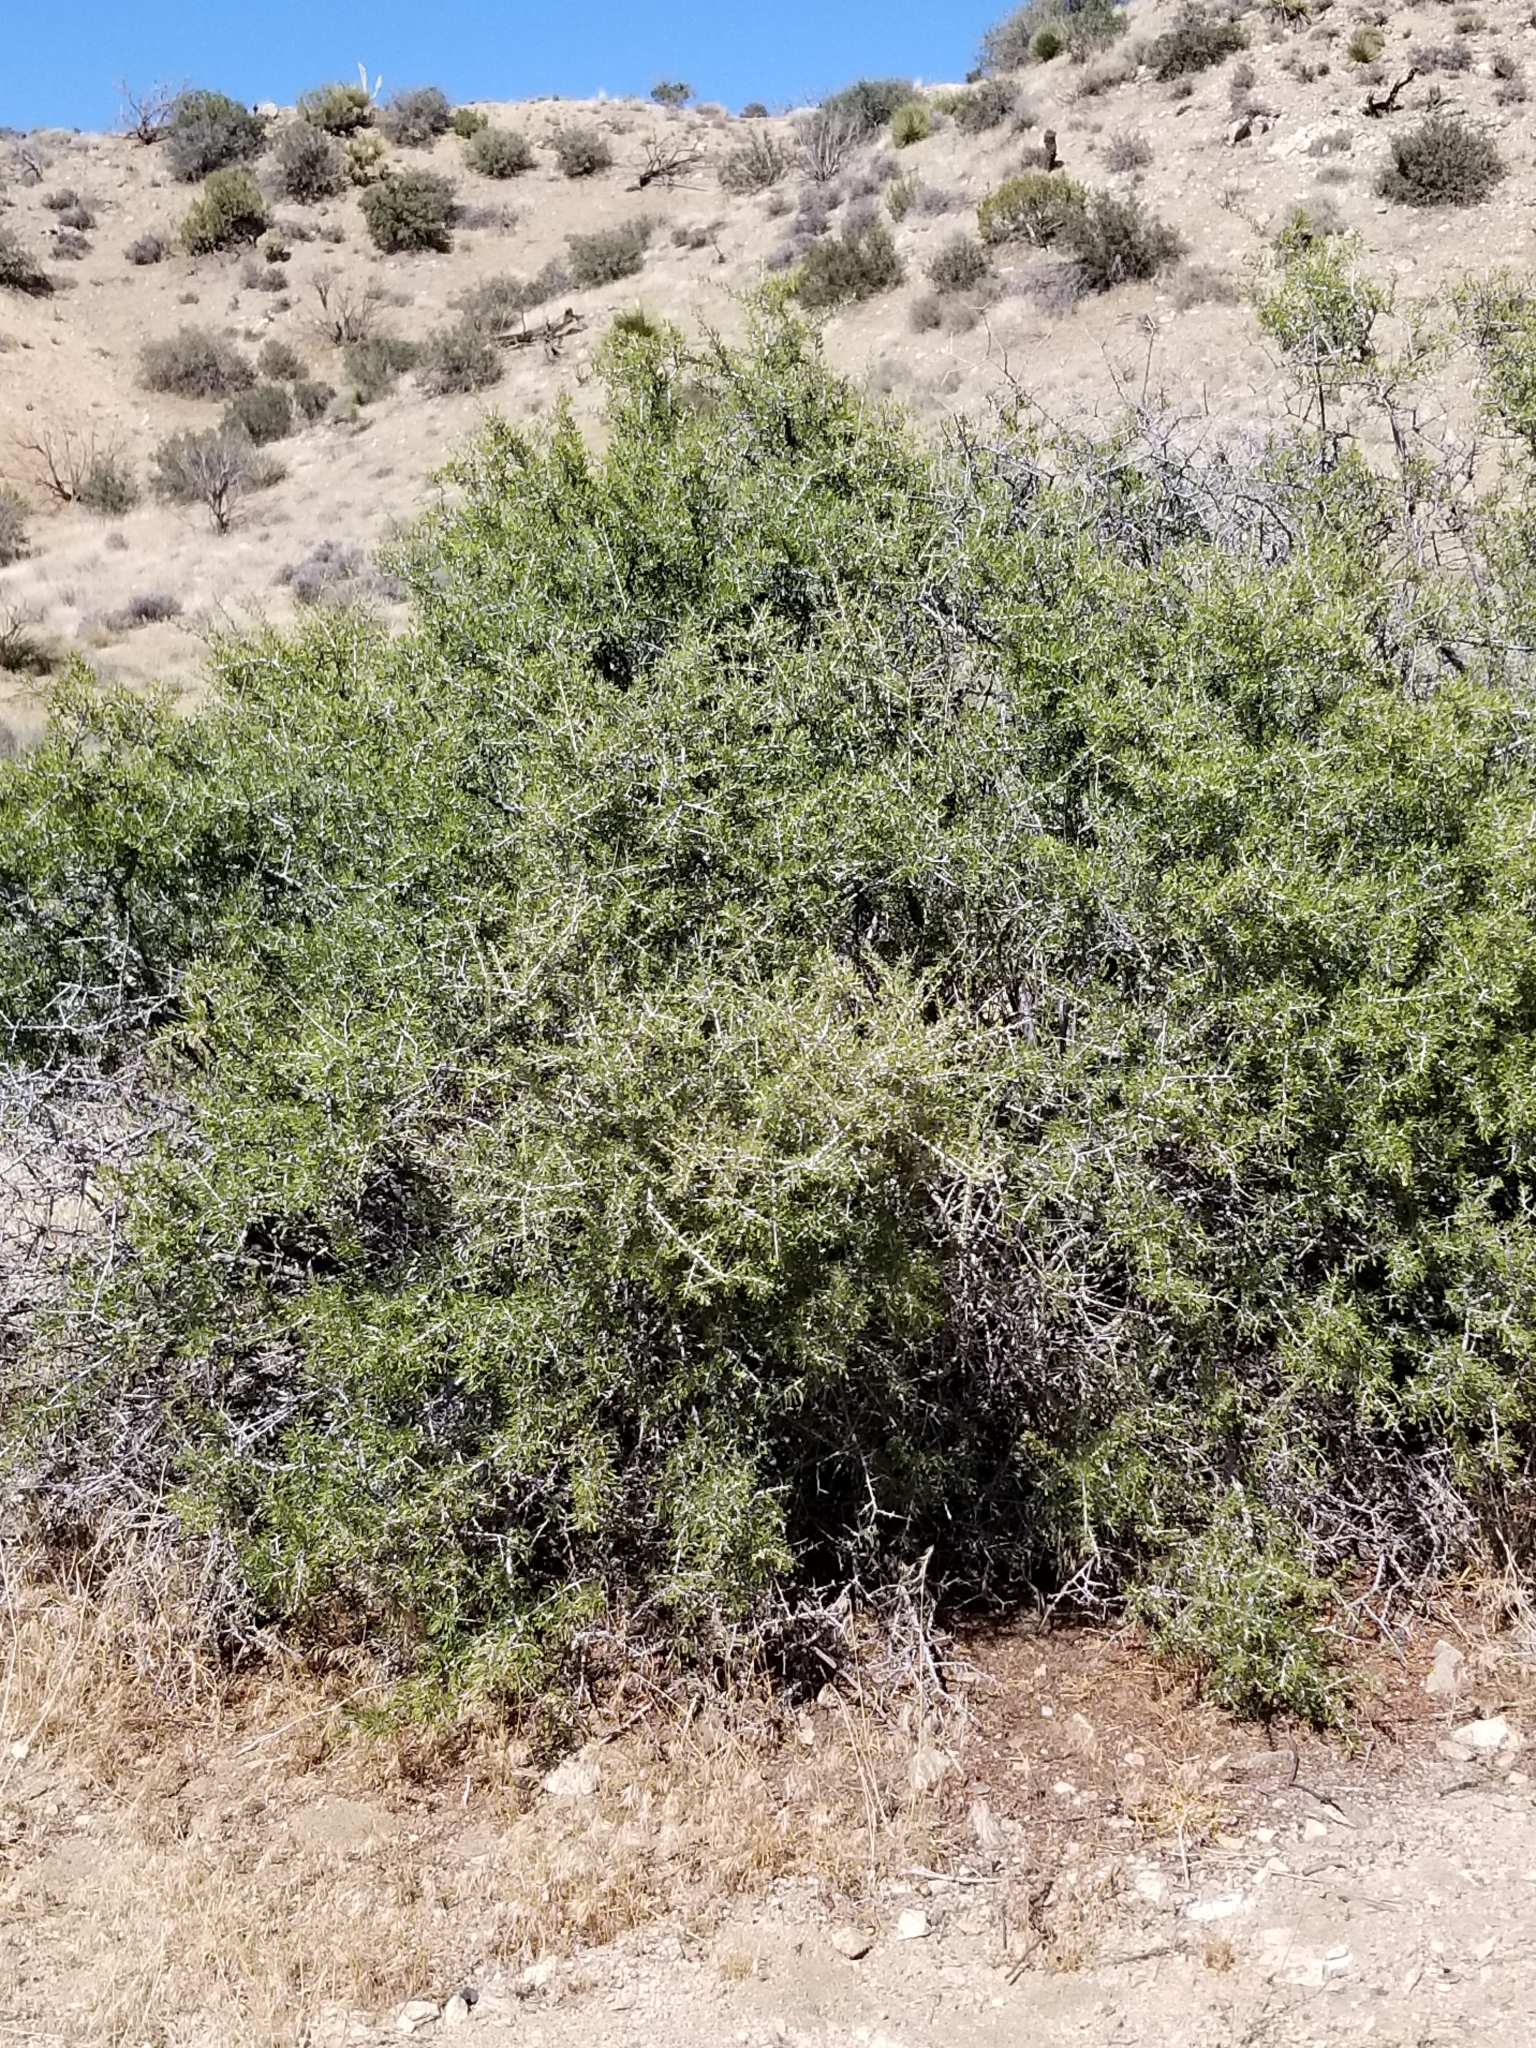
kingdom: Plantae
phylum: Tracheophyta
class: Magnoliopsida
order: Rosales
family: Rosaceae
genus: Prunus
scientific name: Prunus fasciculata
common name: Desert almond
